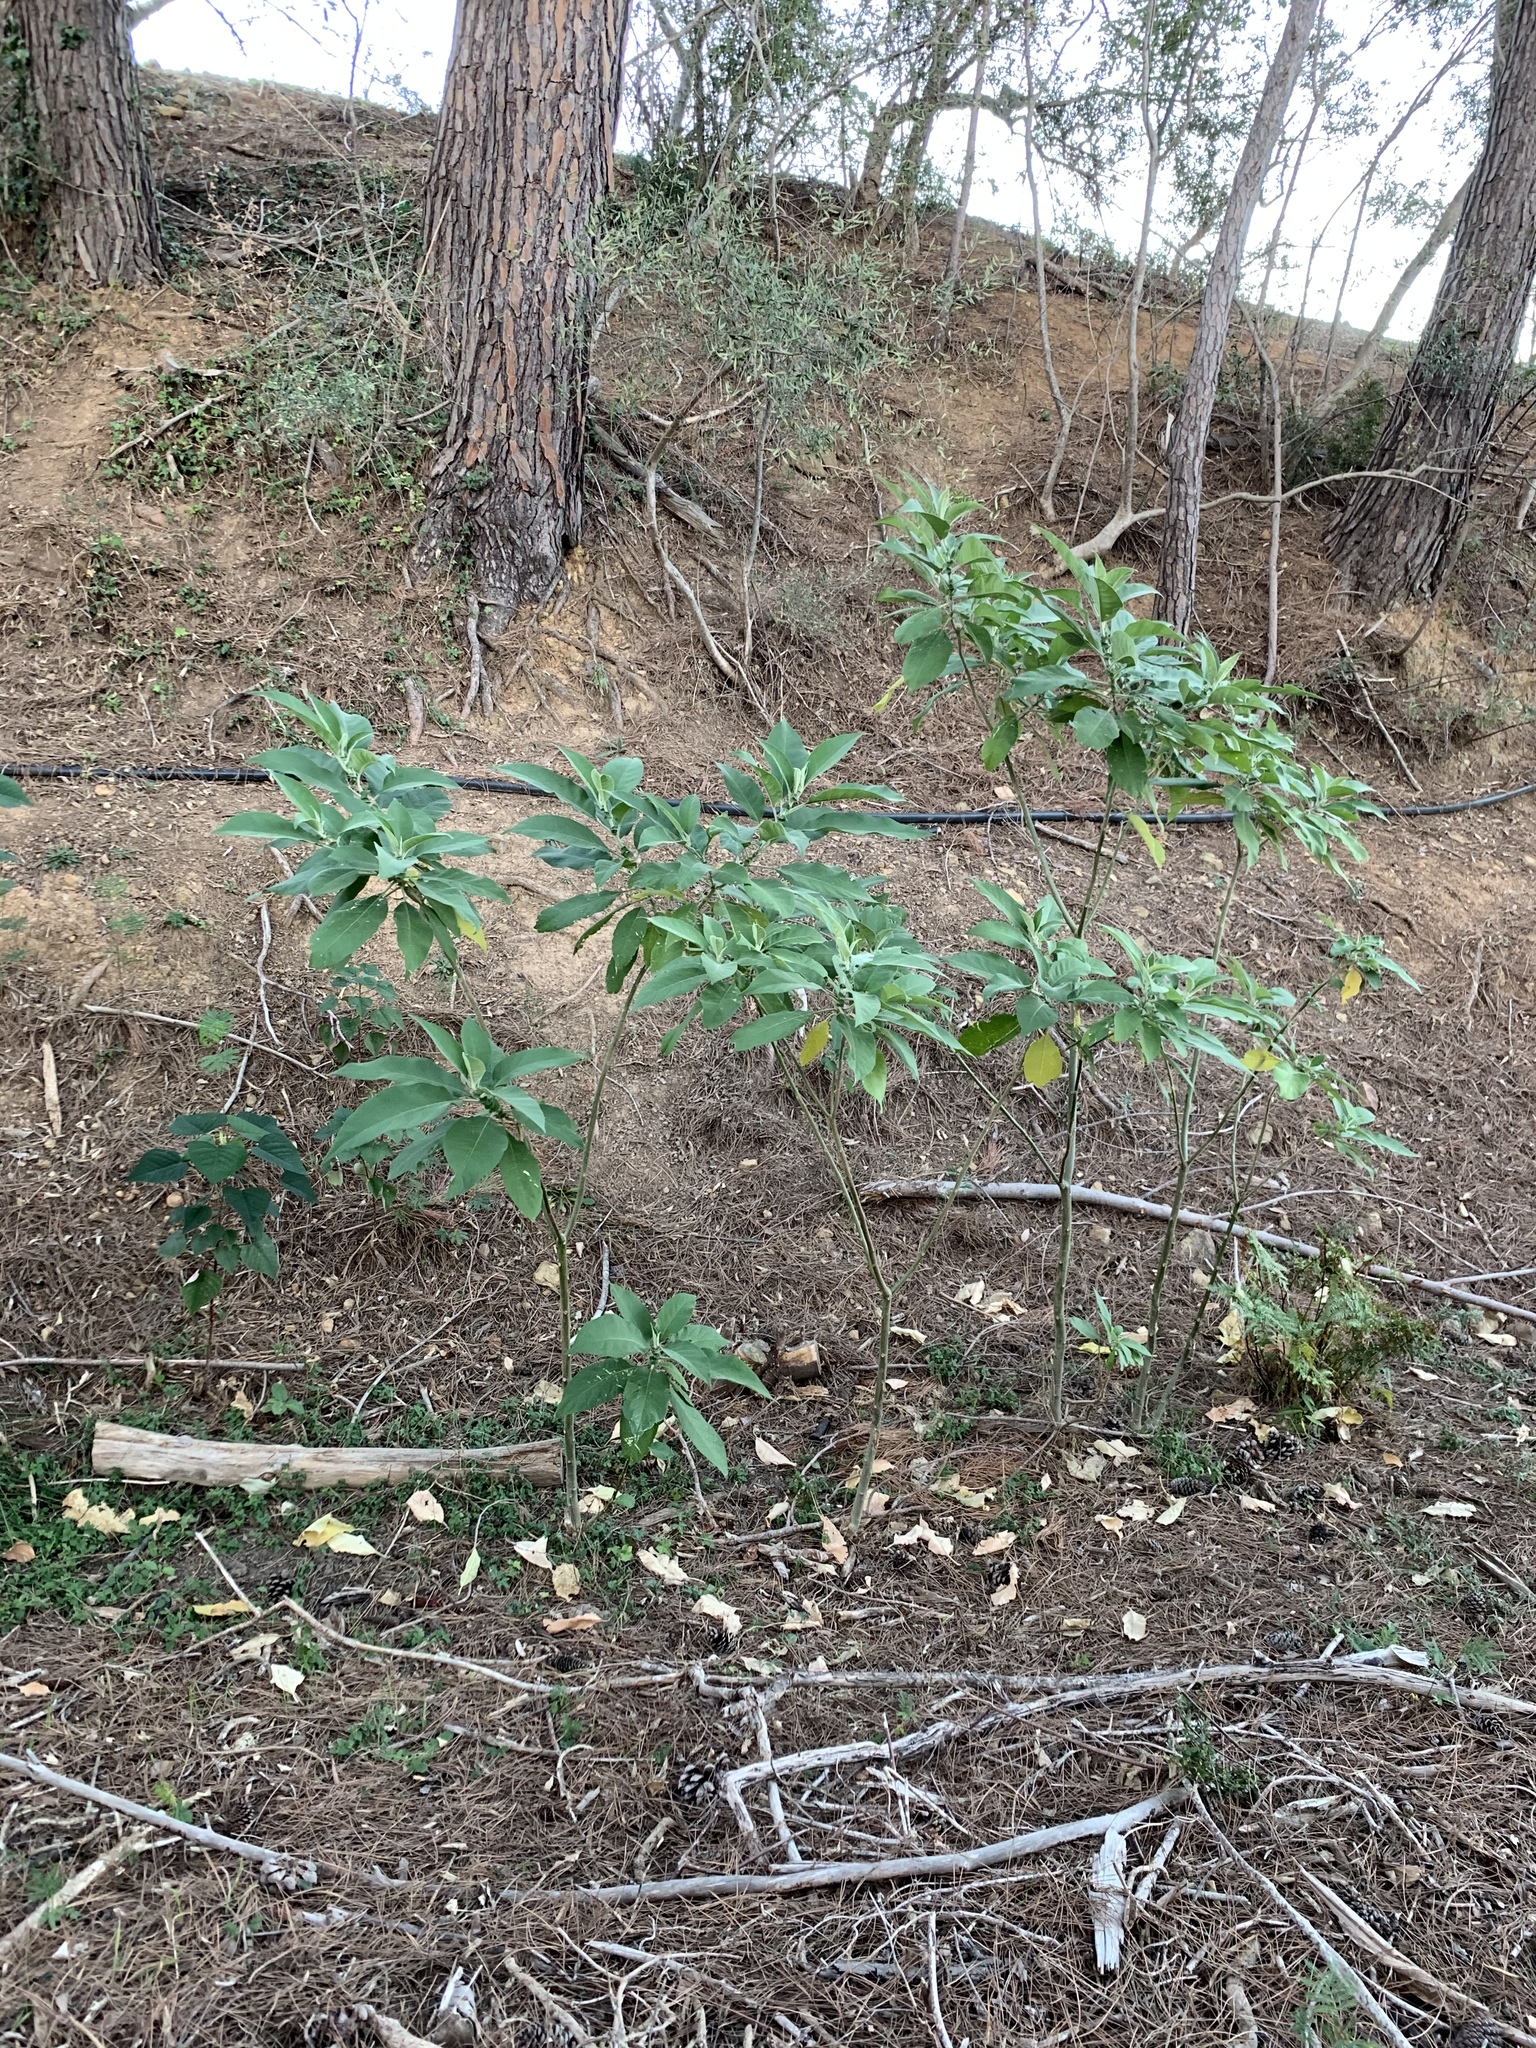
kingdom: Plantae
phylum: Tracheophyta
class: Magnoliopsida
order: Solanales
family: Solanaceae
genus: Solanum
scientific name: Solanum mauritianum
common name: Earleaf nightshade
